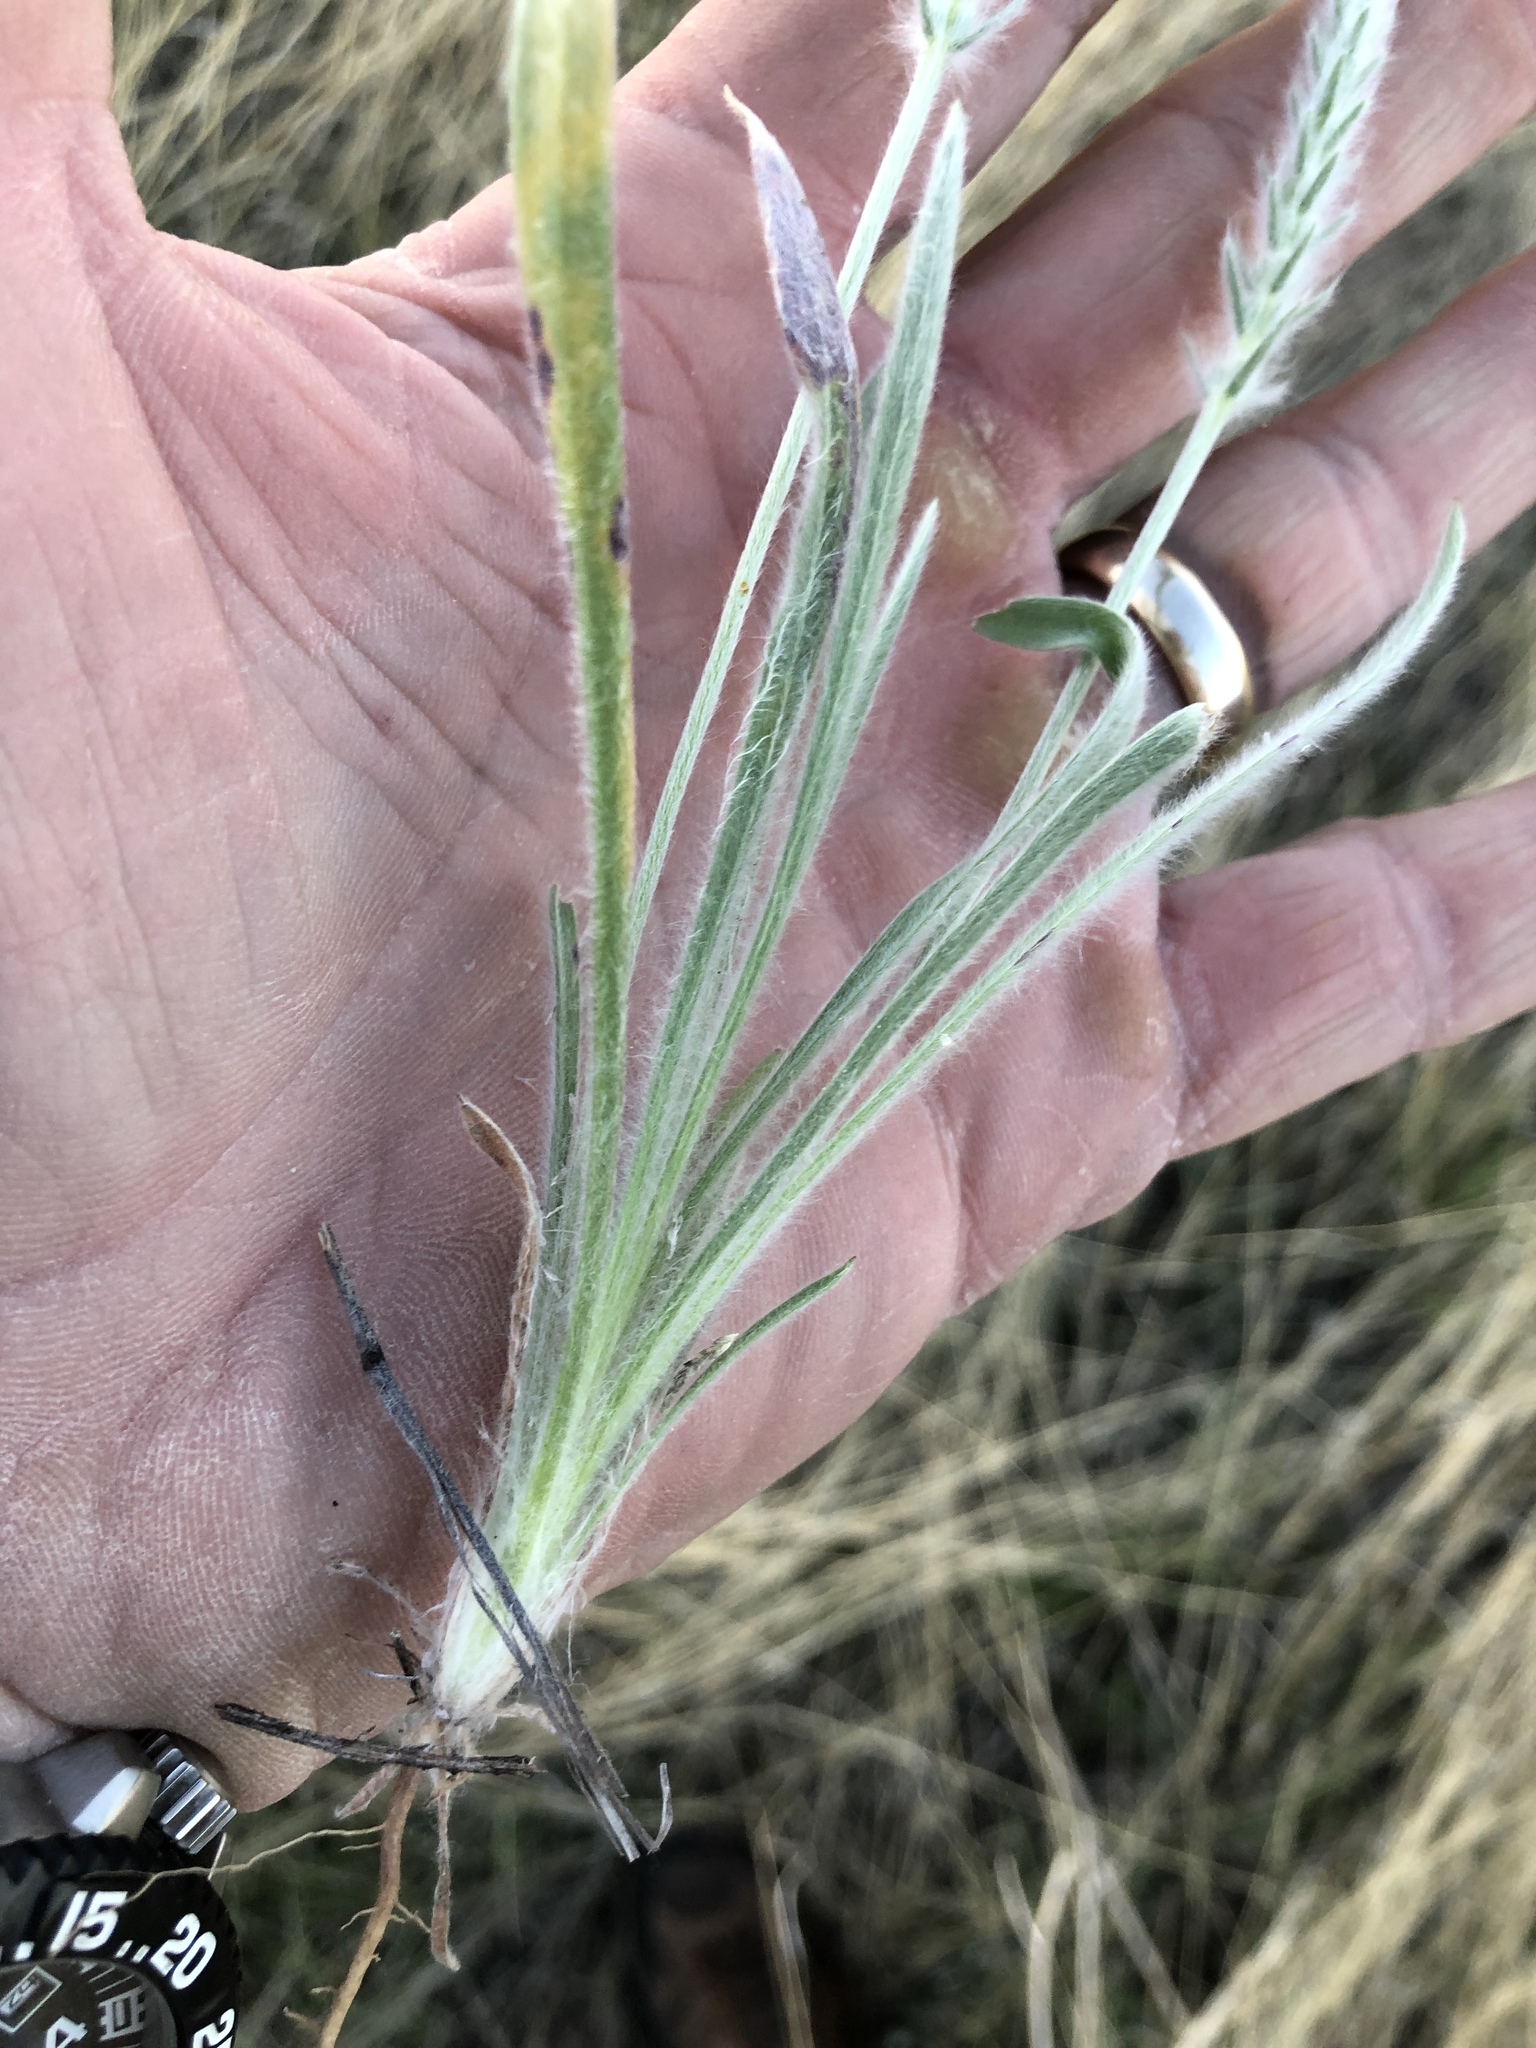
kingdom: Plantae
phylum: Tracheophyta
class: Magnoliopsida
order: Lamiales
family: Plantaginaceae
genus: Plantago
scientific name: Plantago patagonica
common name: Patagonia indian-wheat
